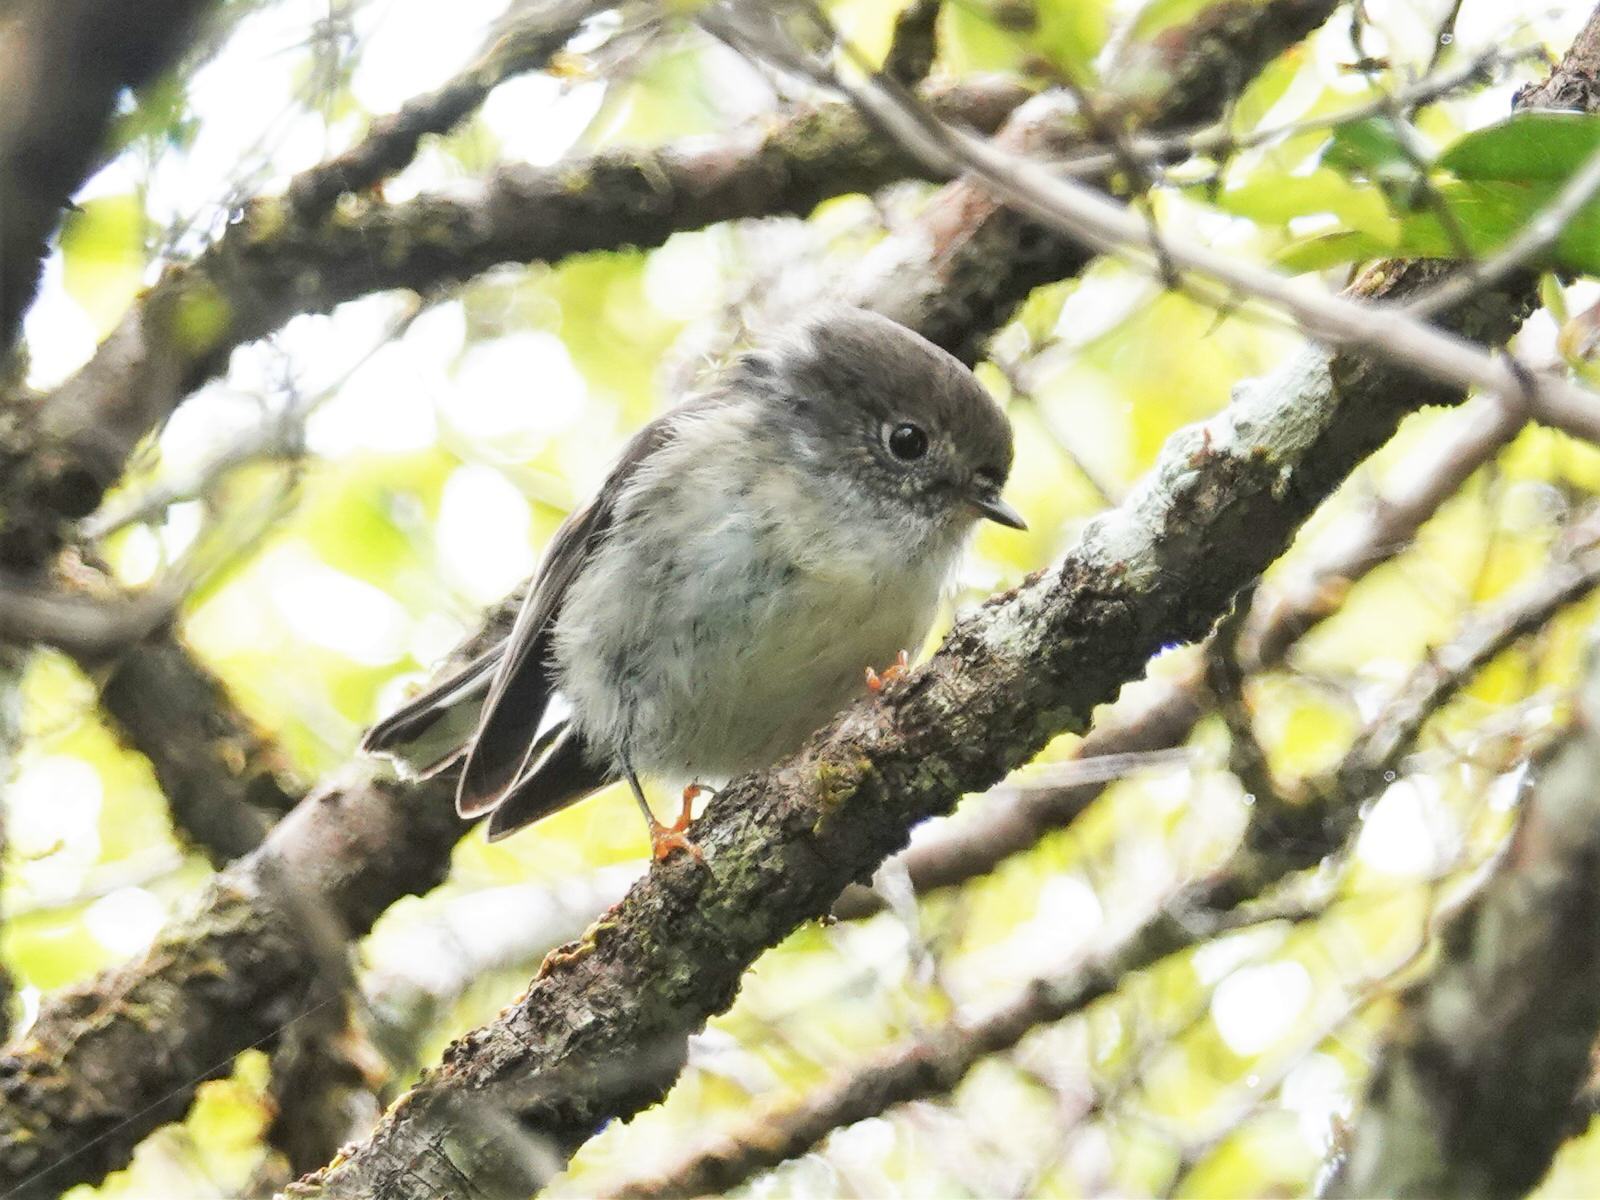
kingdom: Animalia
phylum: Chordata
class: Aves
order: Passeriformes
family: Petroicidae
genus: Petroica
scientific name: Petroica macrocephala
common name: Tomtit
